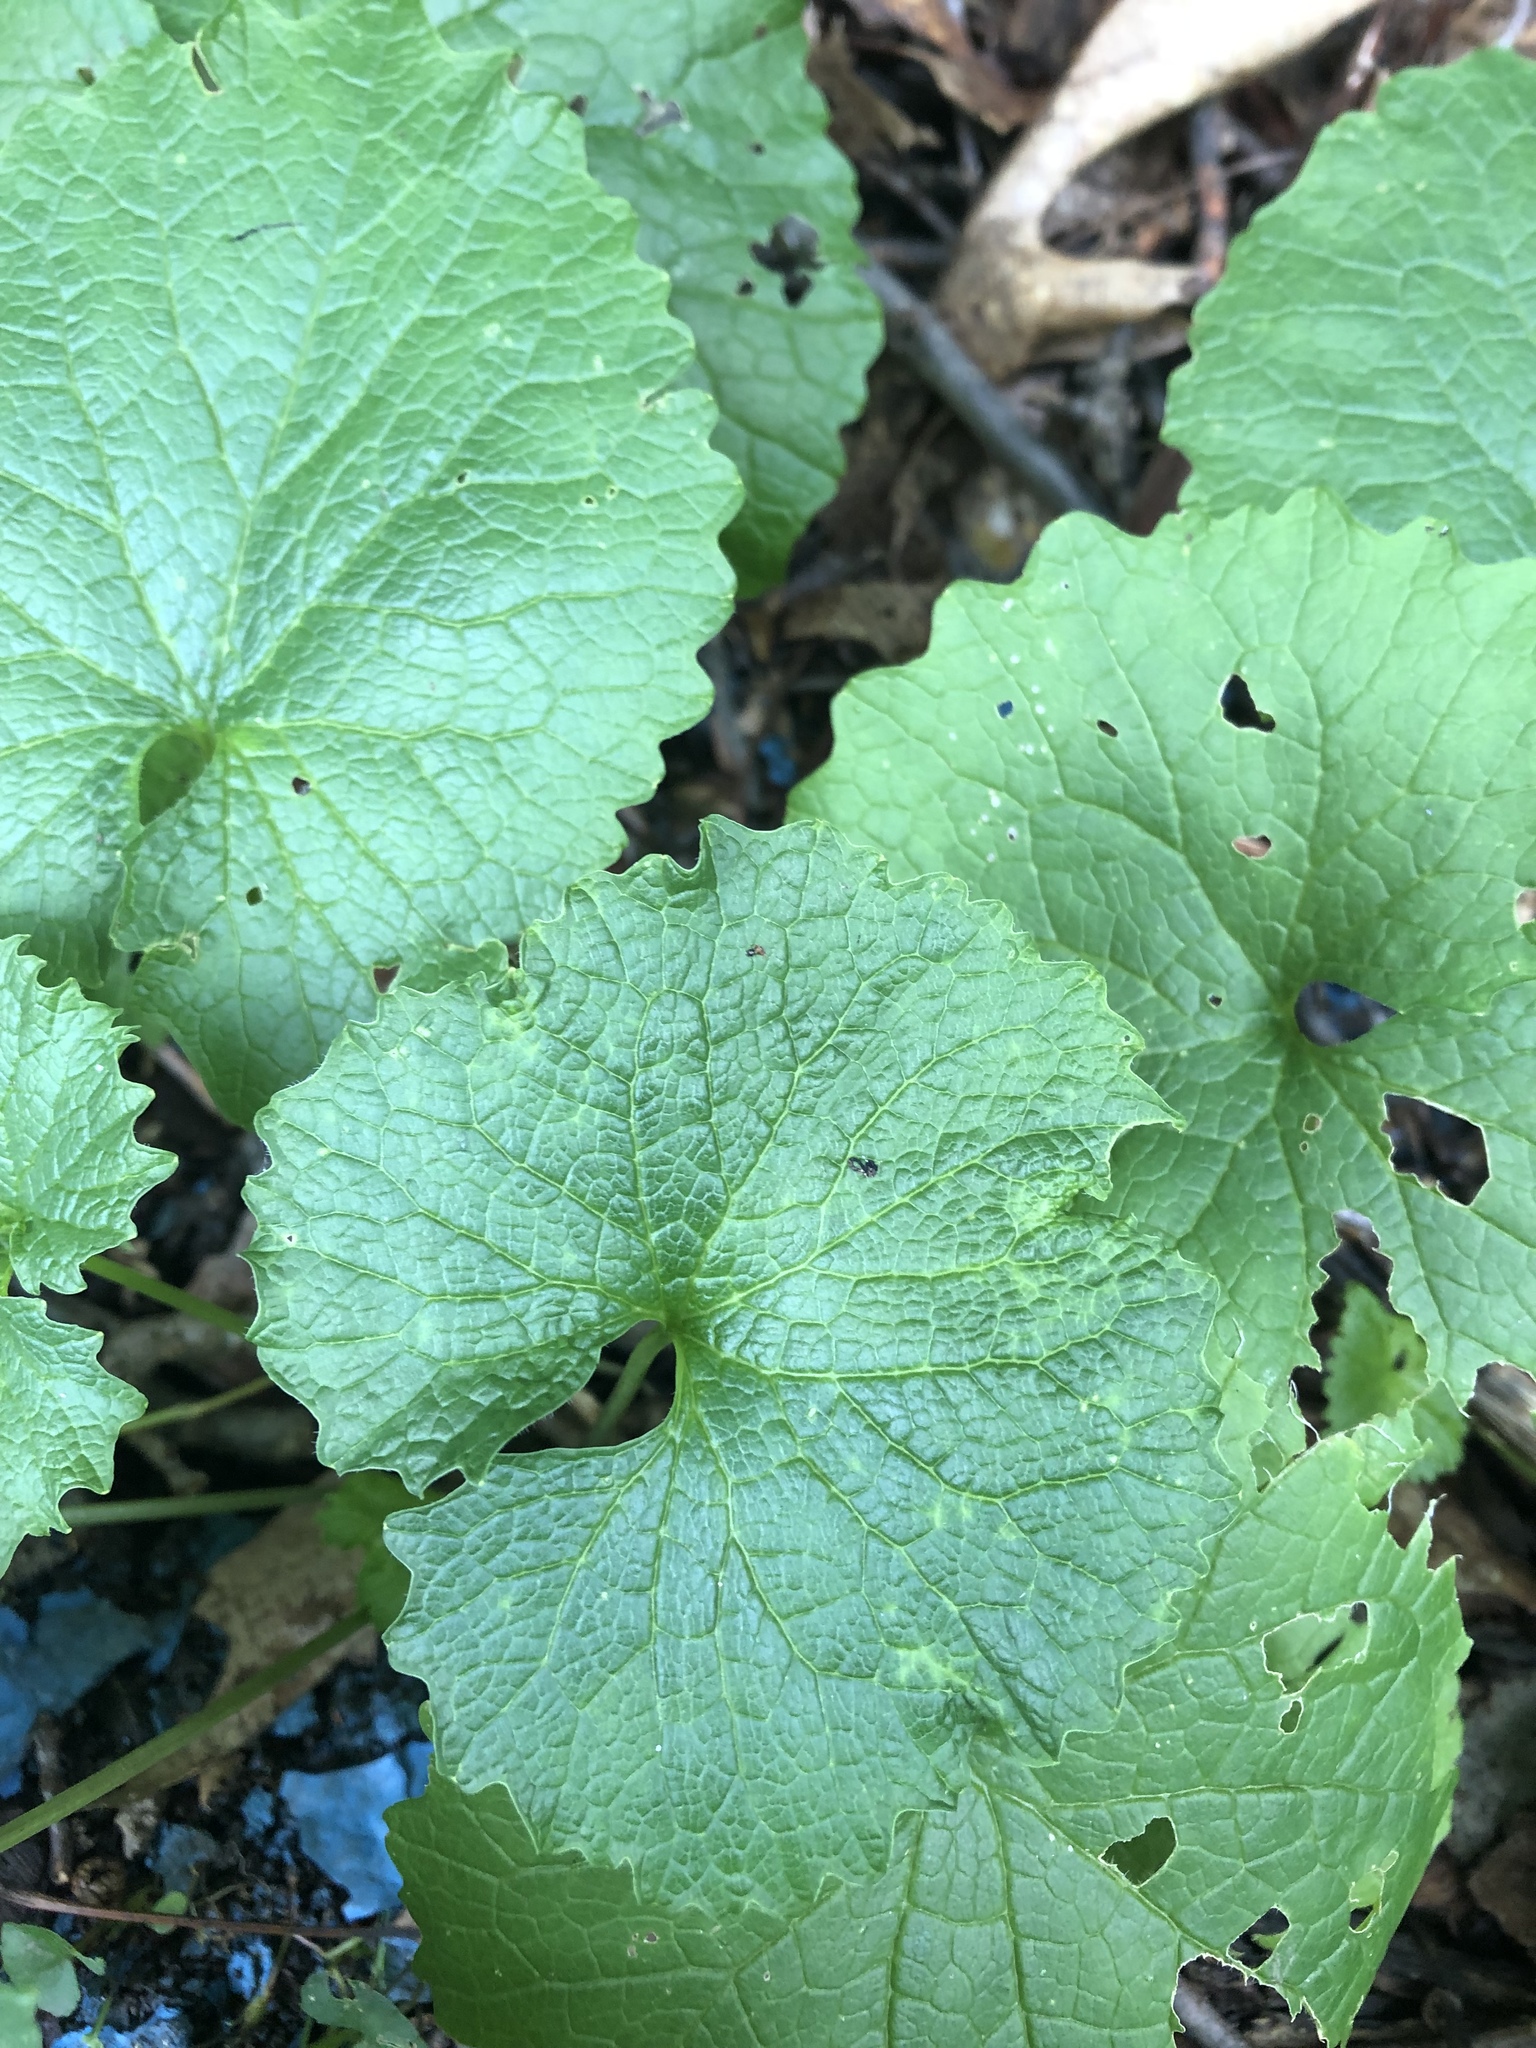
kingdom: Plantae
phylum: Tracheophyta
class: Magnoliopsida
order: Brassicales
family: Brassicaceae
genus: Alliaria
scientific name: Alliaria petiolata
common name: Garlic mustard
